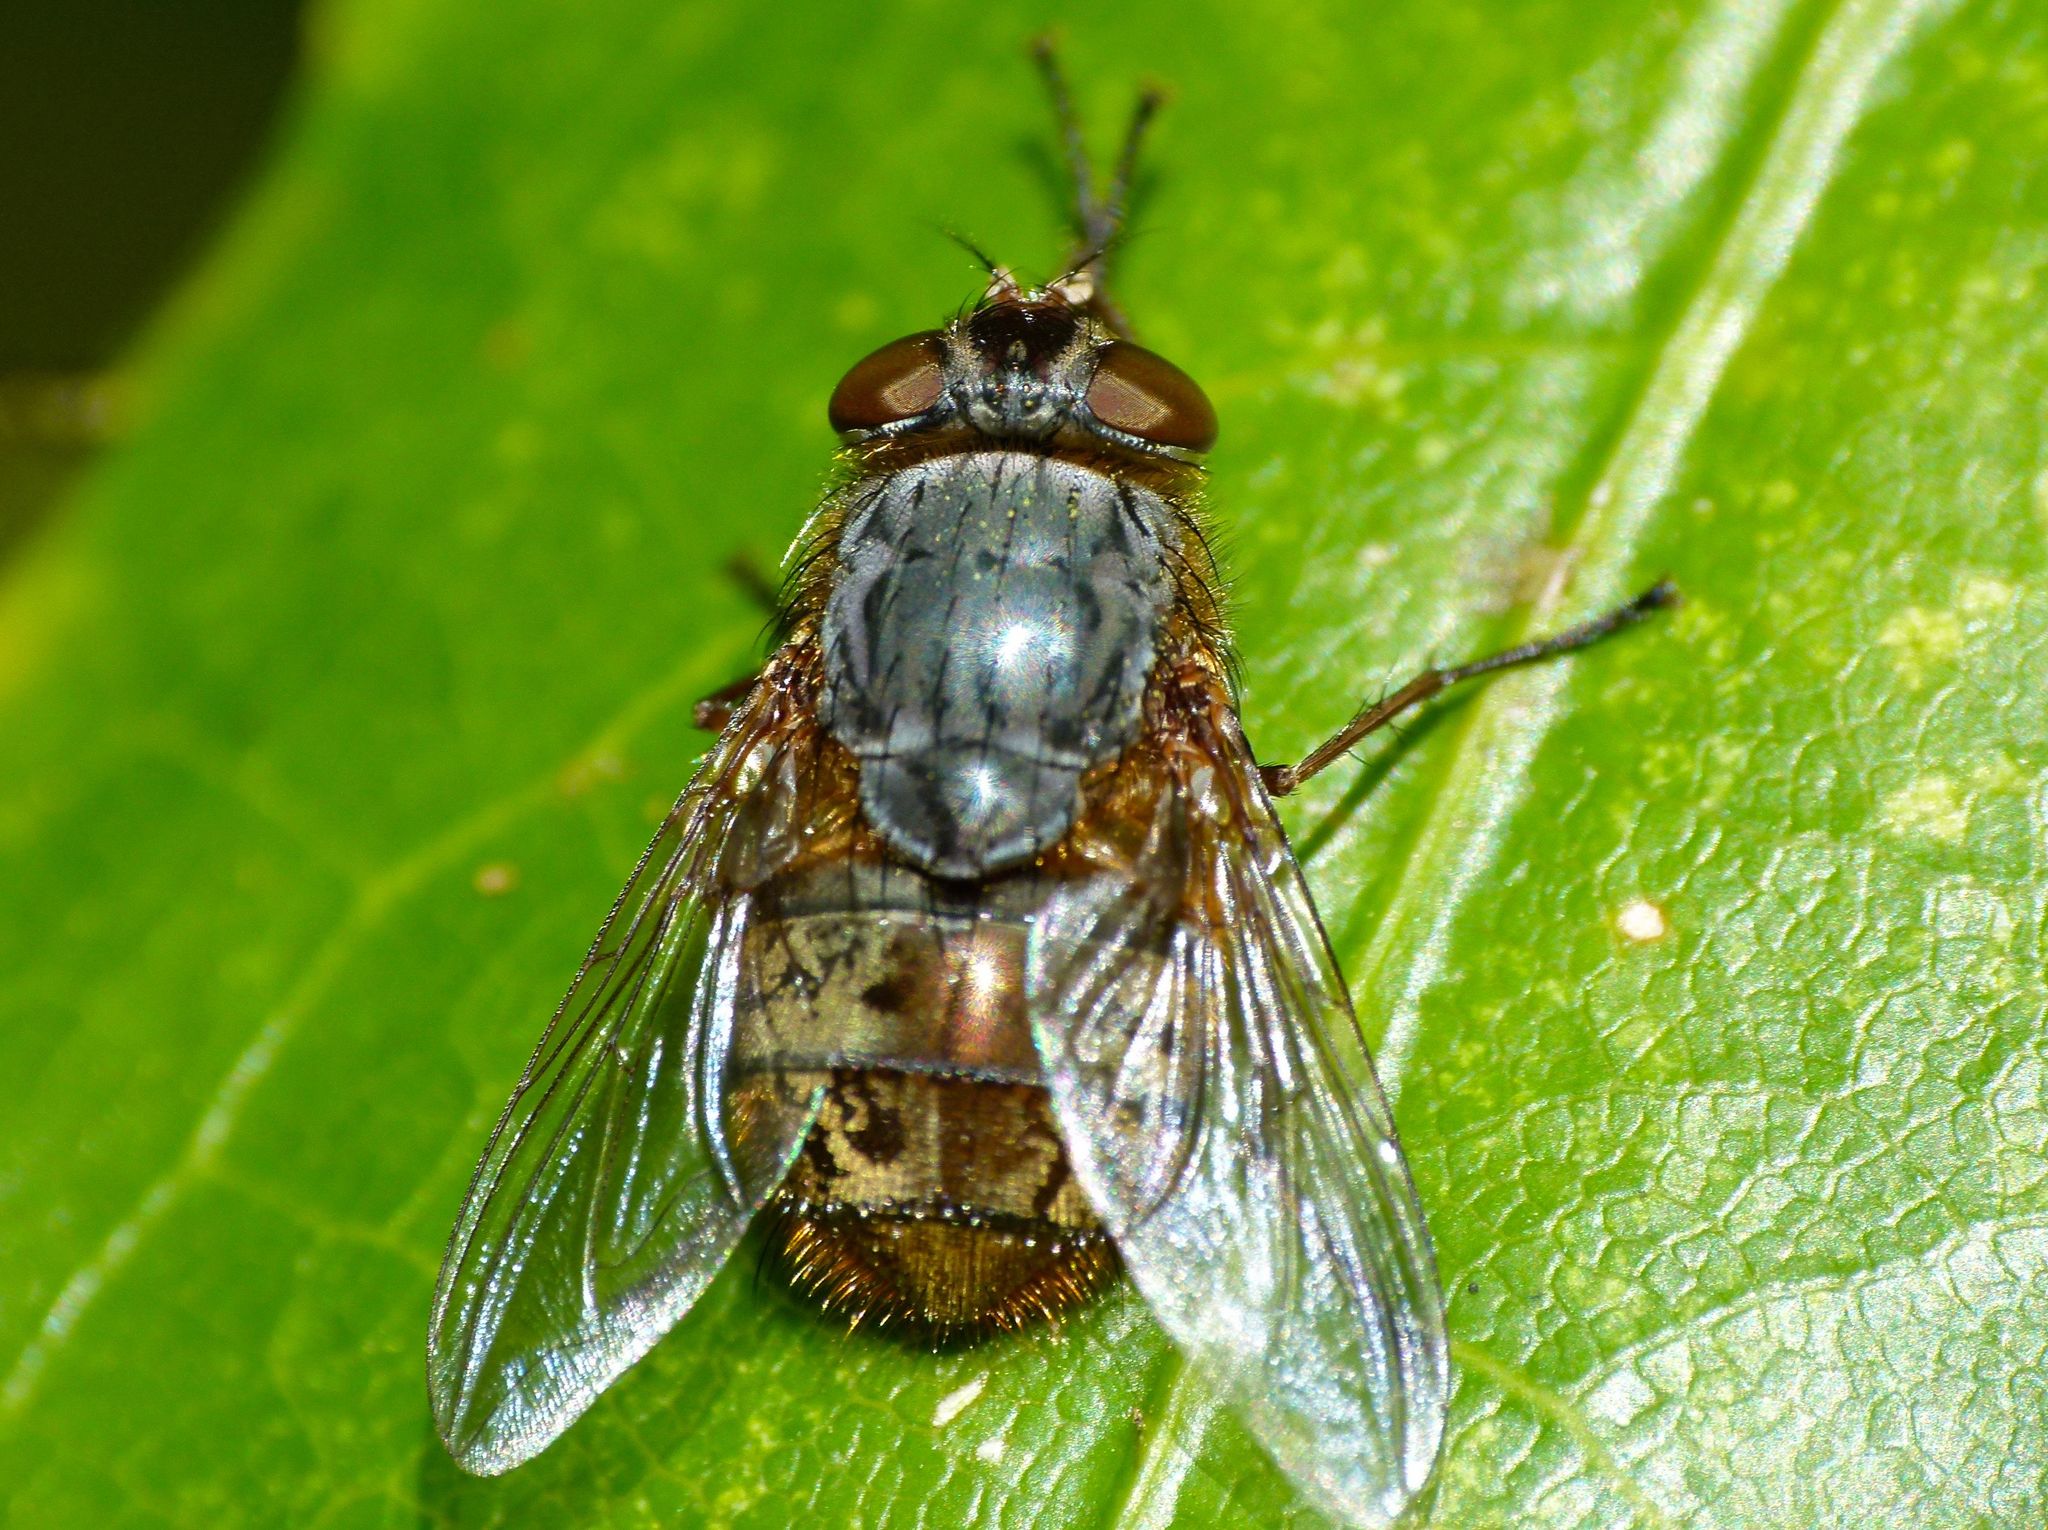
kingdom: Animalia
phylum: Arthropoda
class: Insecta
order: Diptera
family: Calliphoridae
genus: Calliphora
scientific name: Calliphora stygia
